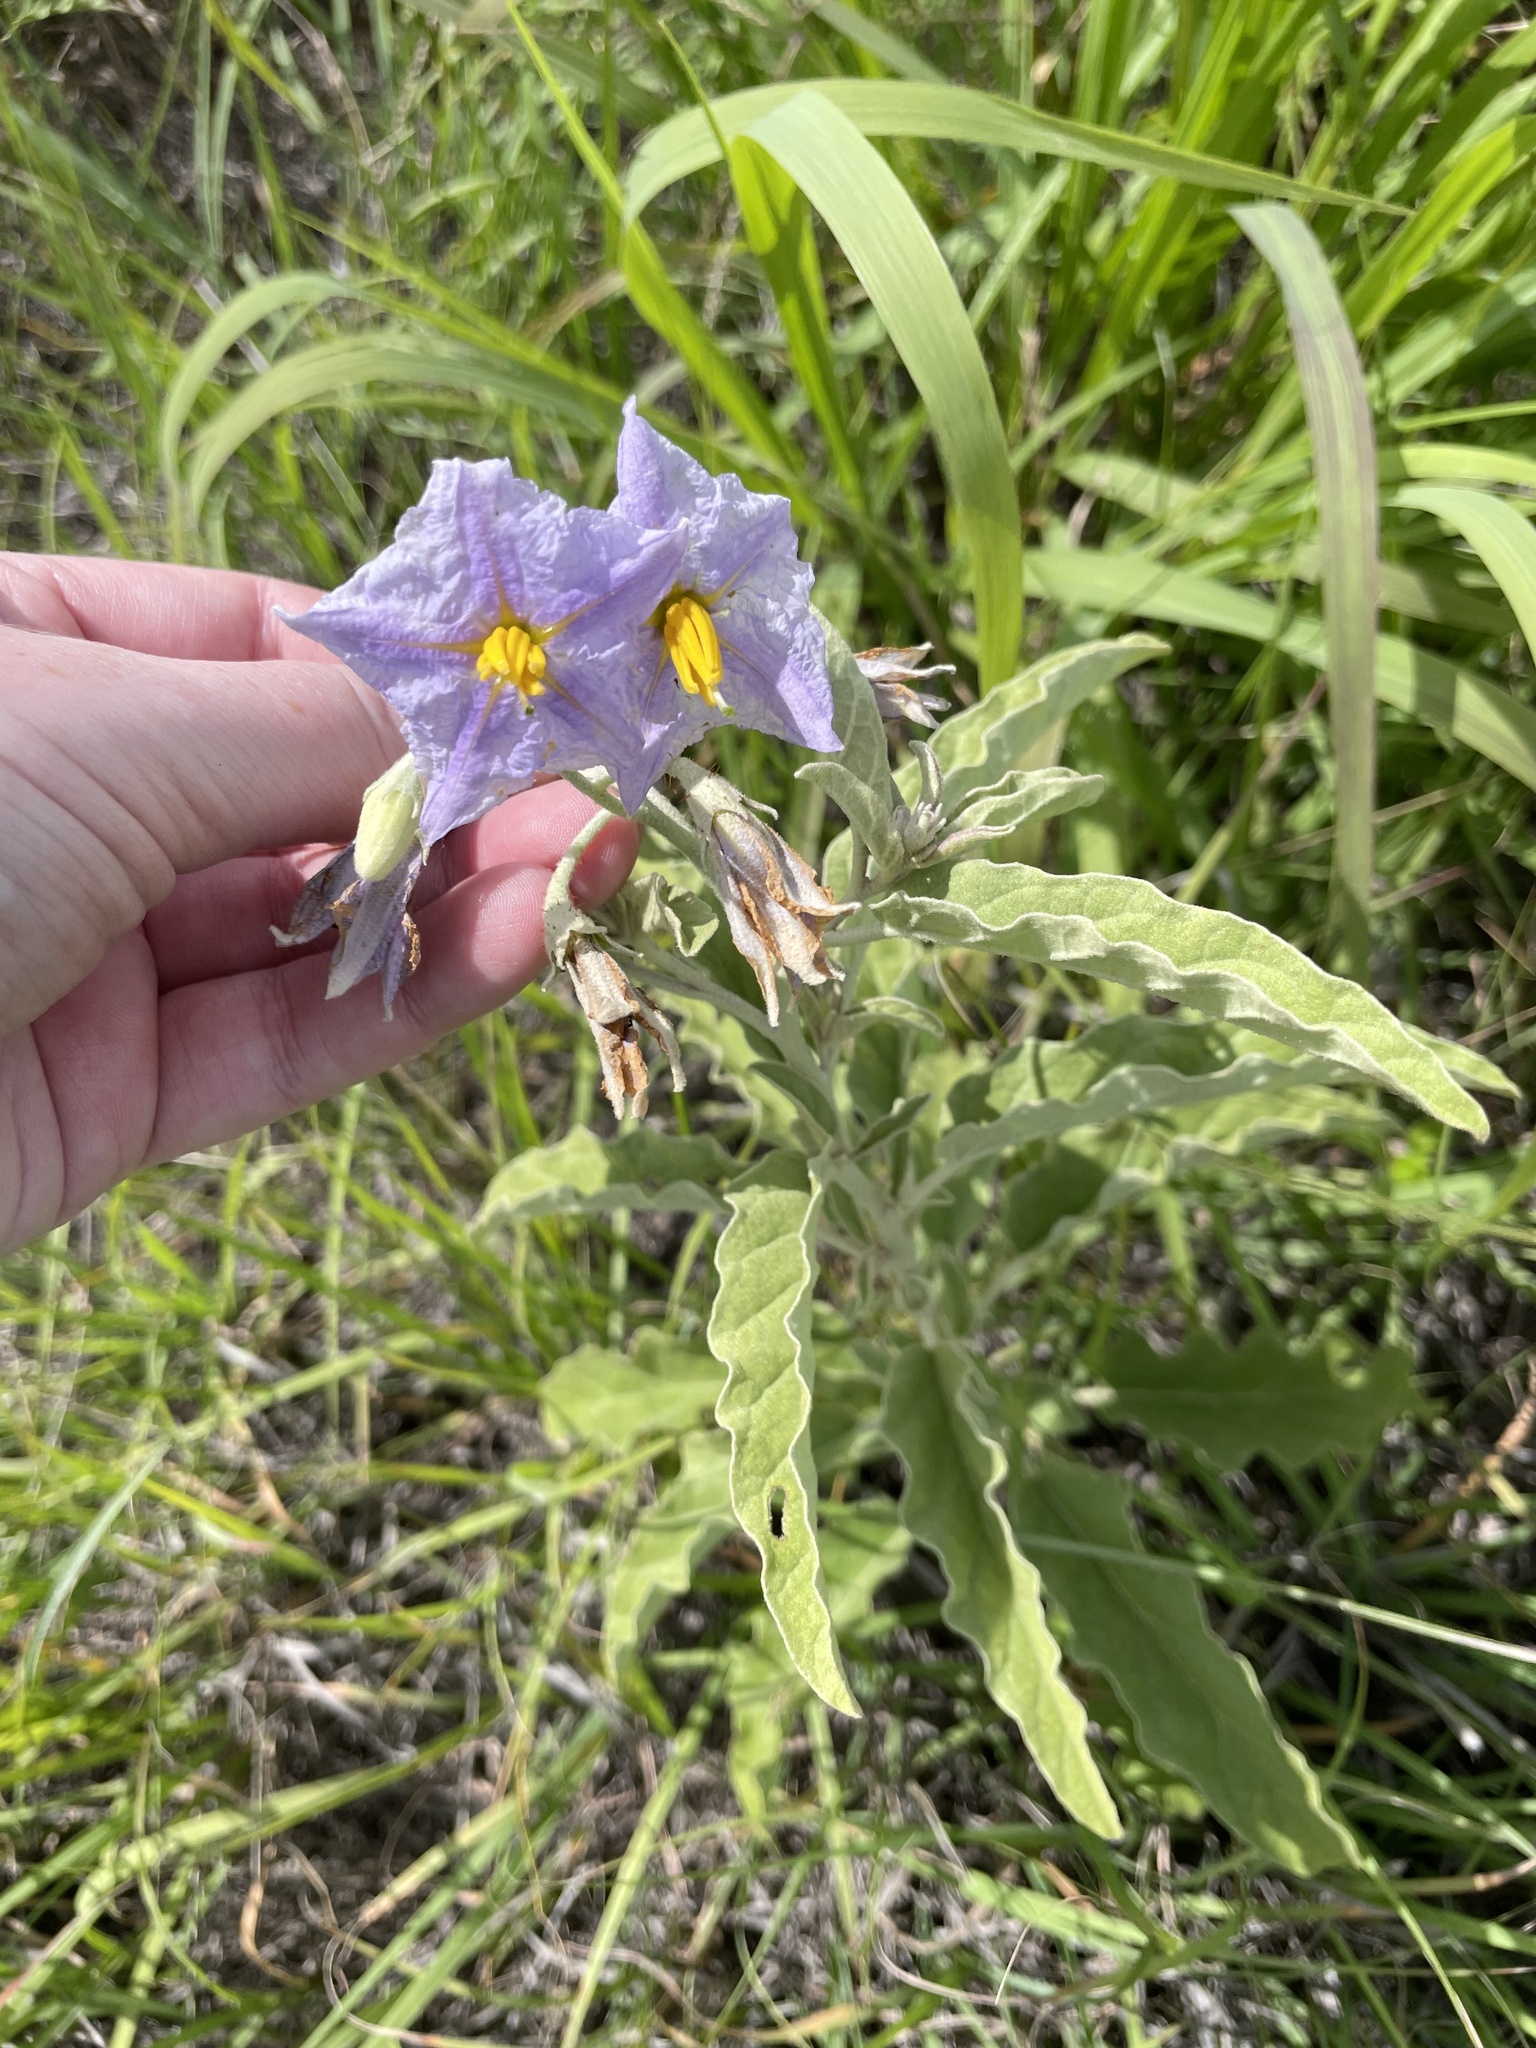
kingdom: Plantae
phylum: Tracheophyta
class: Magnoliopsida
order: Solanales
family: Solanaceae
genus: Solanum
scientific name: Solanum elaeagnifolium
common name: Silverleaf nightshade
